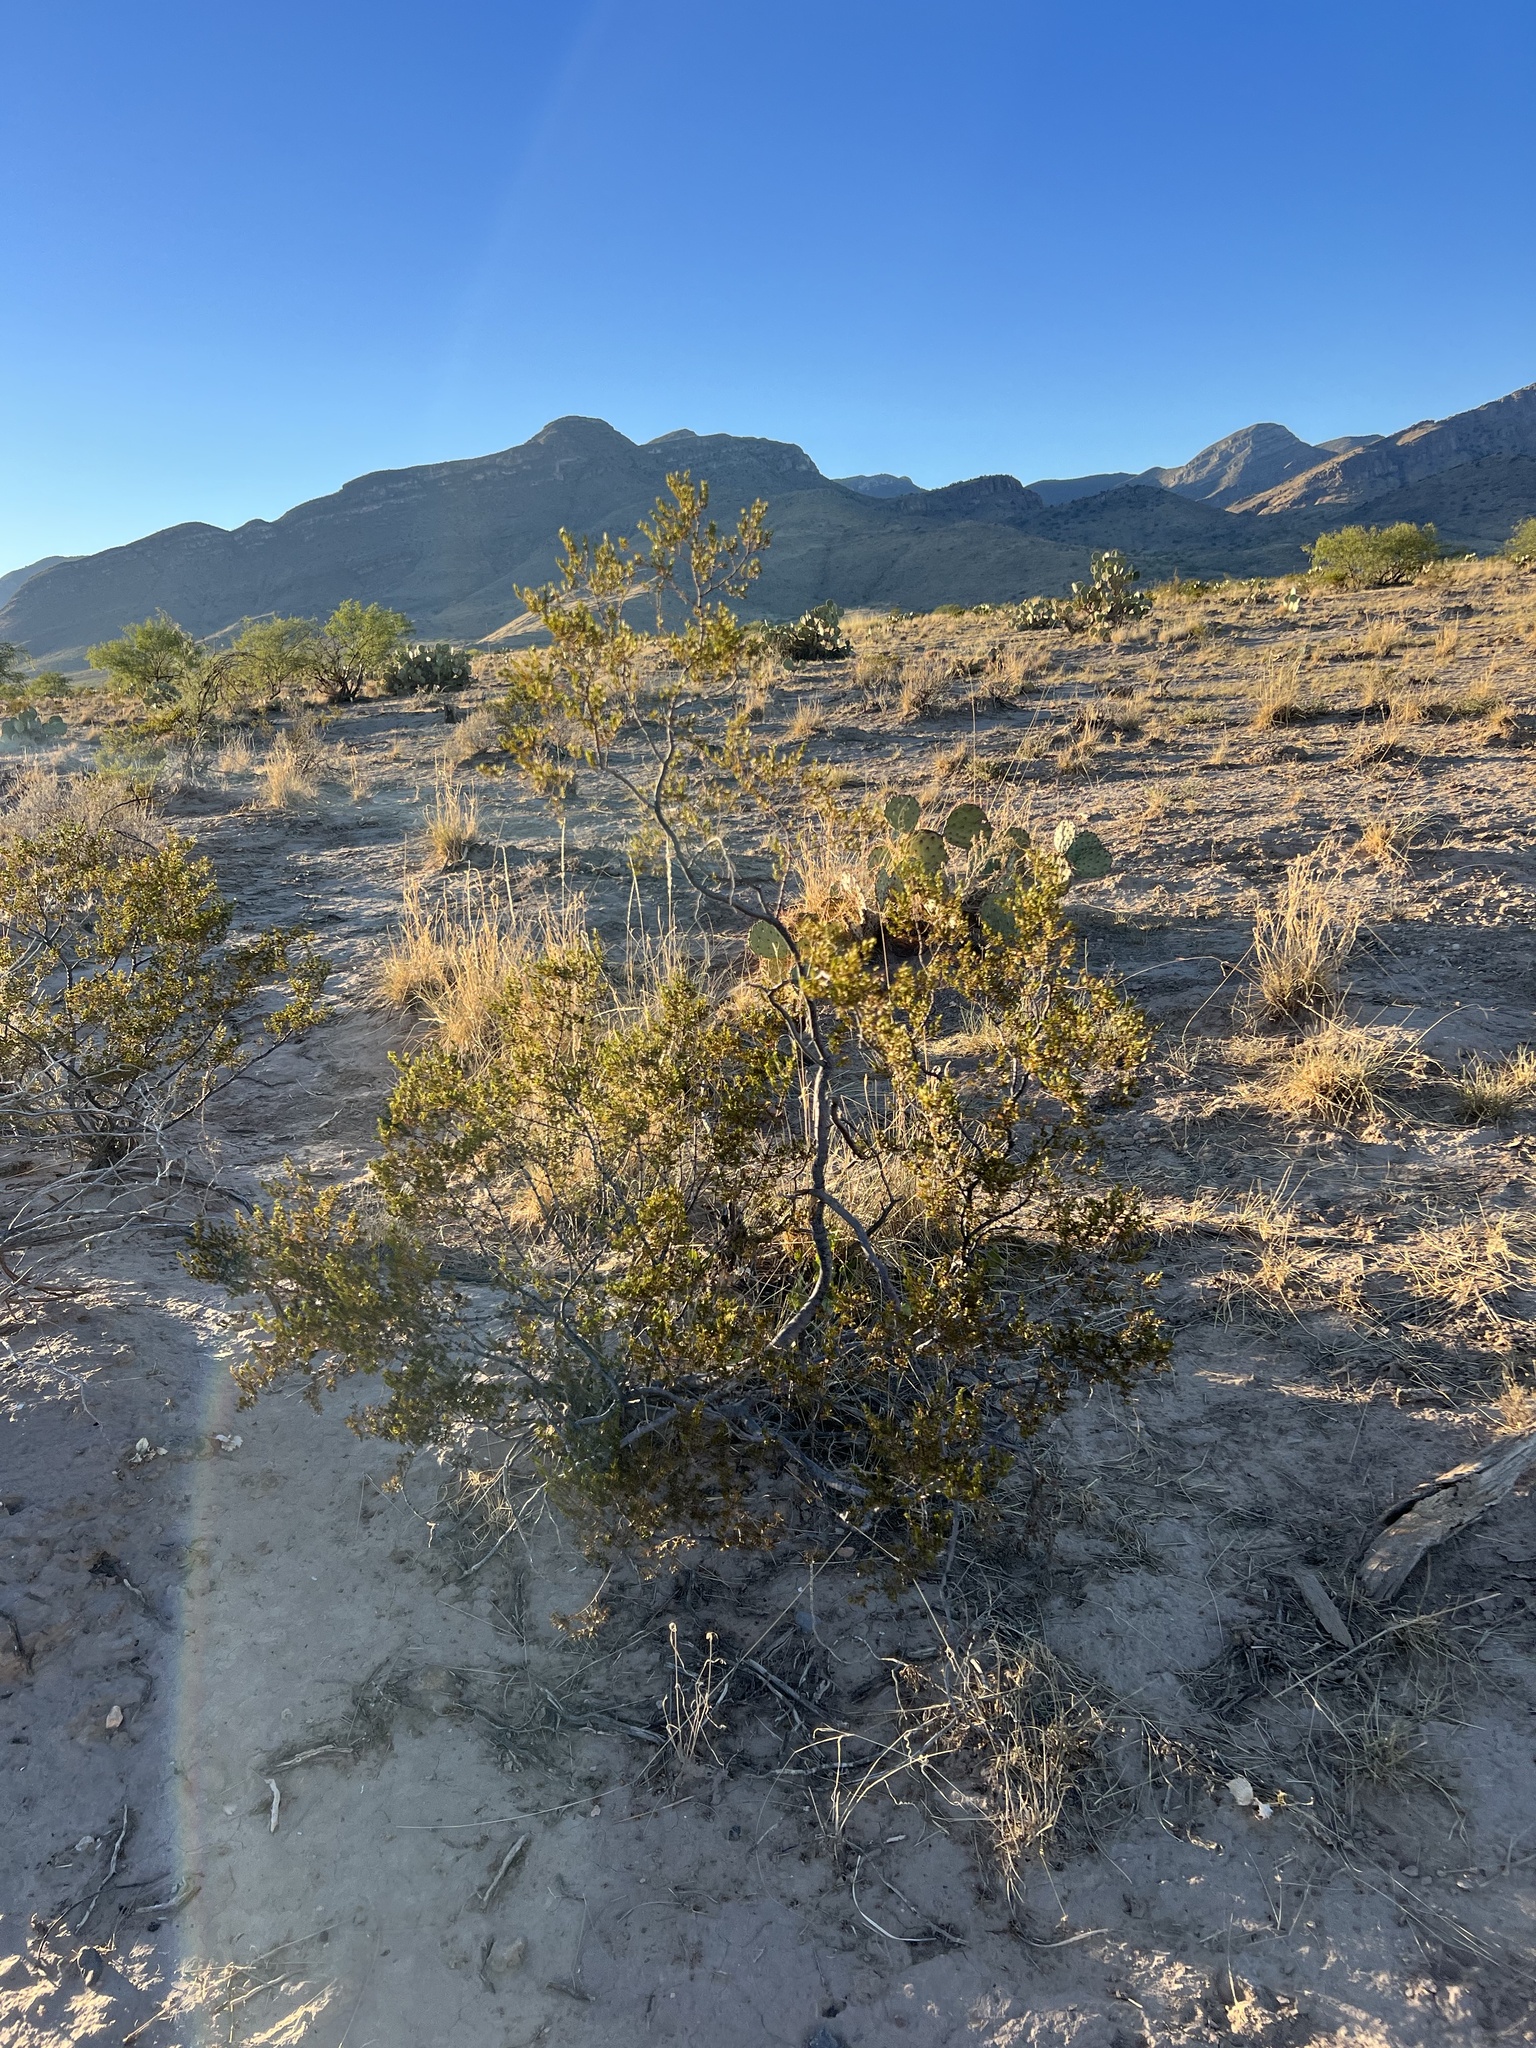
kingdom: Plantae
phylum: Tracheophyta
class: Magnoliopsida
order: Zygophyllales
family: Zygophyllaceae
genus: Larrea
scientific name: Larrea tridentata
